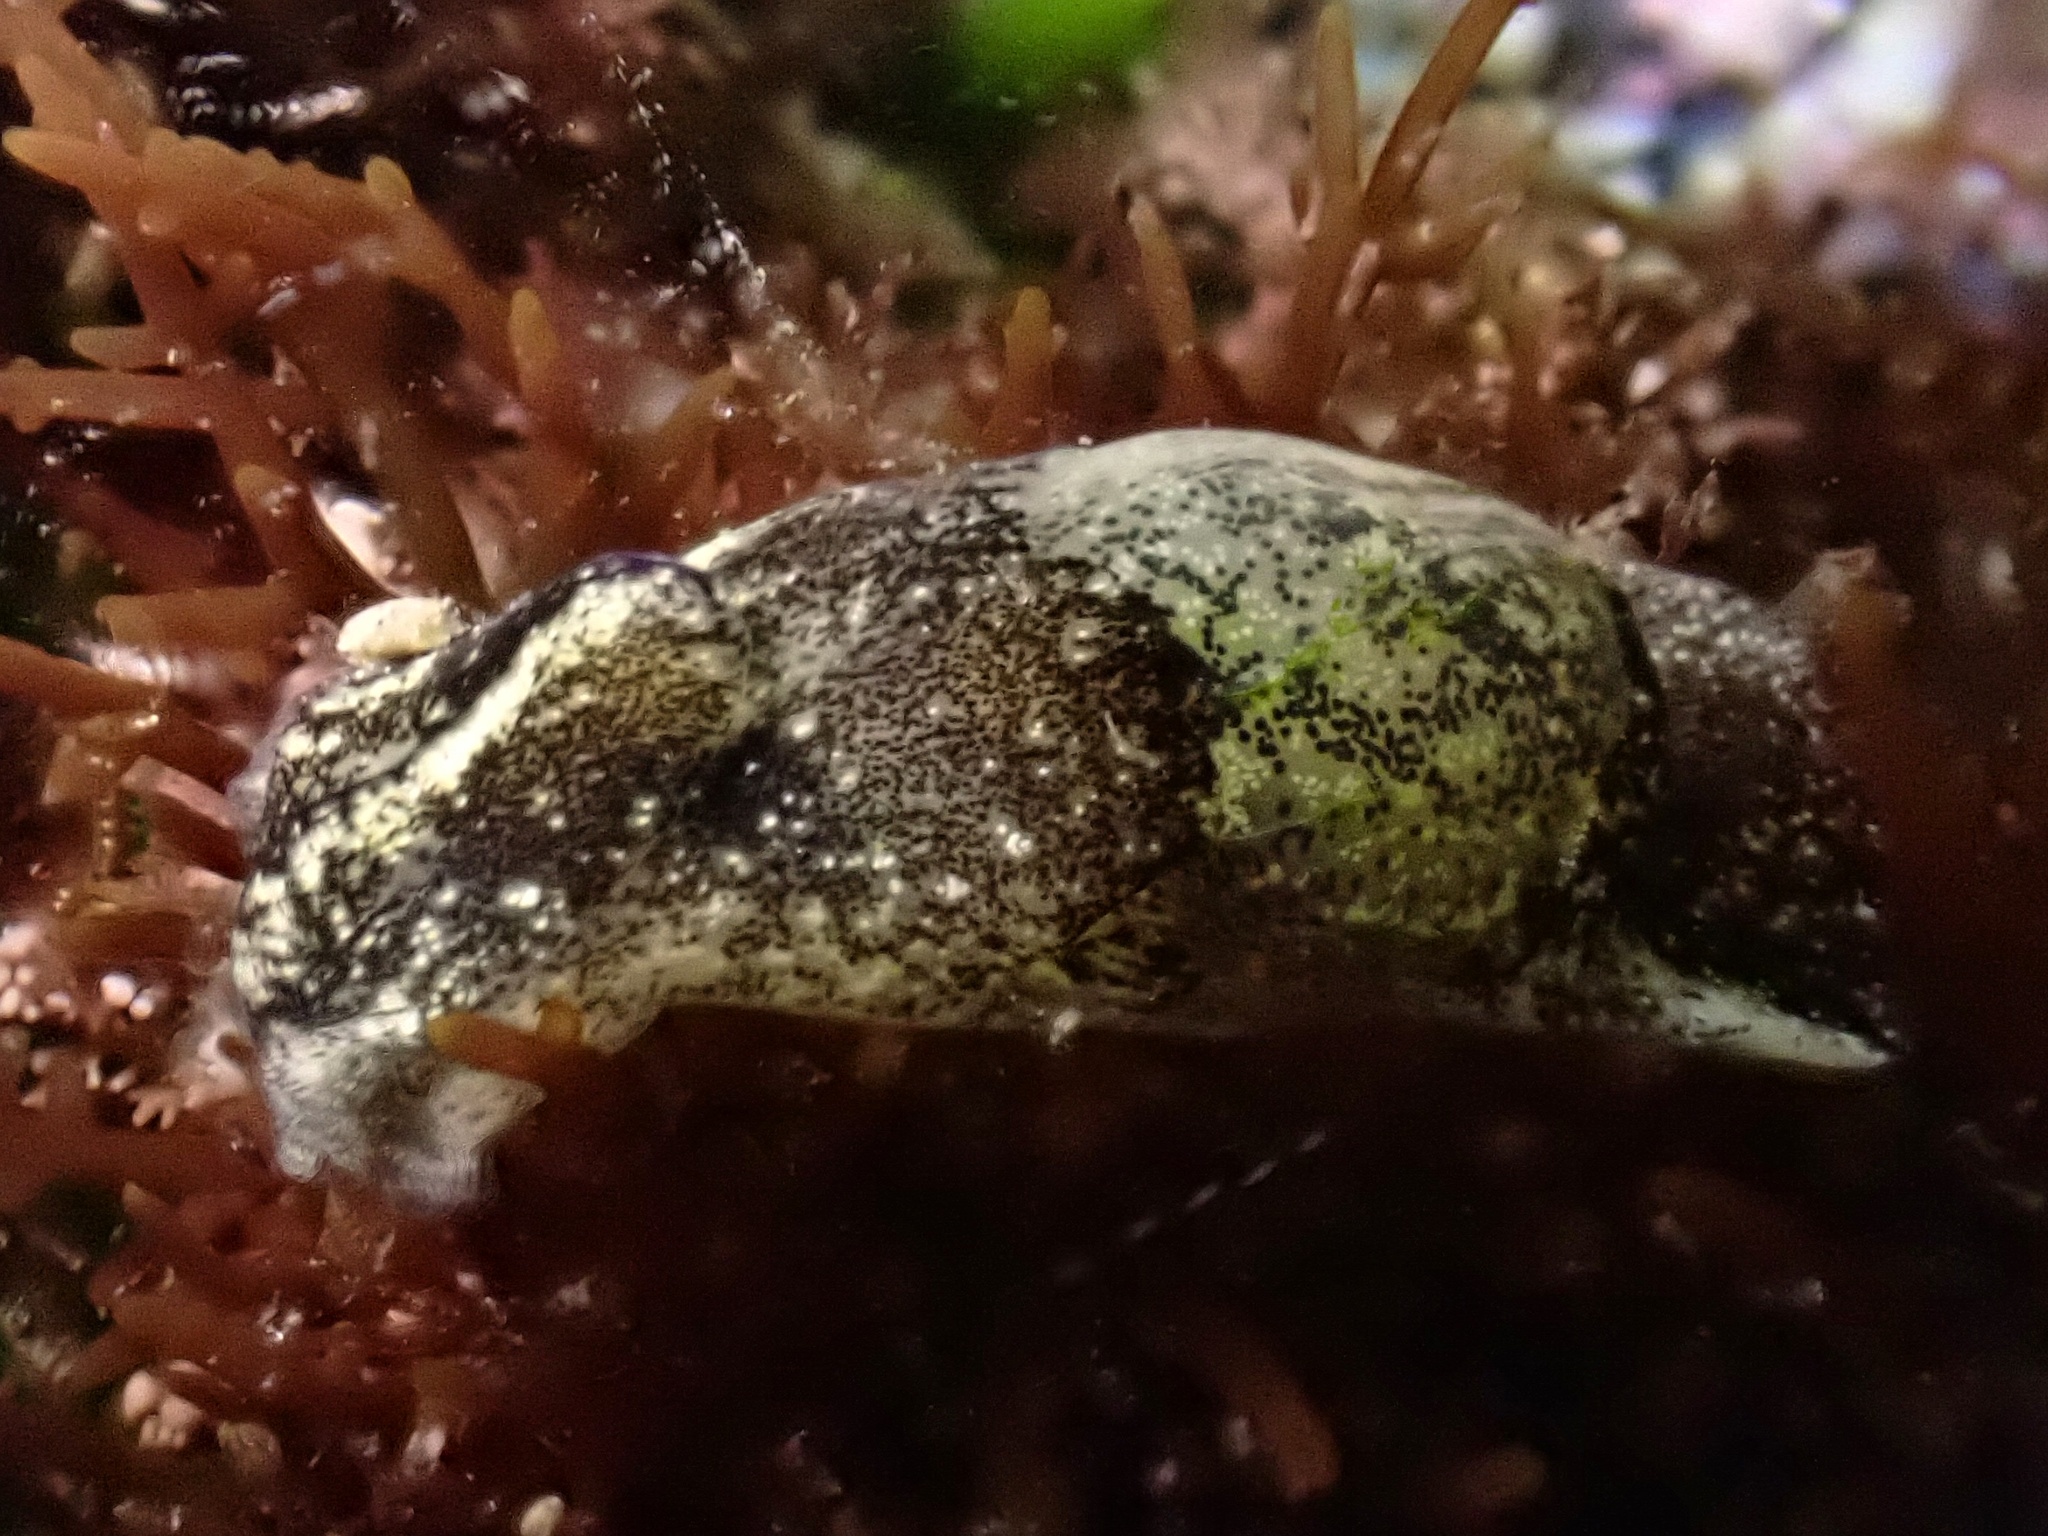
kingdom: Animalia
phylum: Mollusca
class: Gastropoda
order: Cephalaspidea
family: Haminoeidae
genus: Haminoea
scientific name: Haminoea virescens
